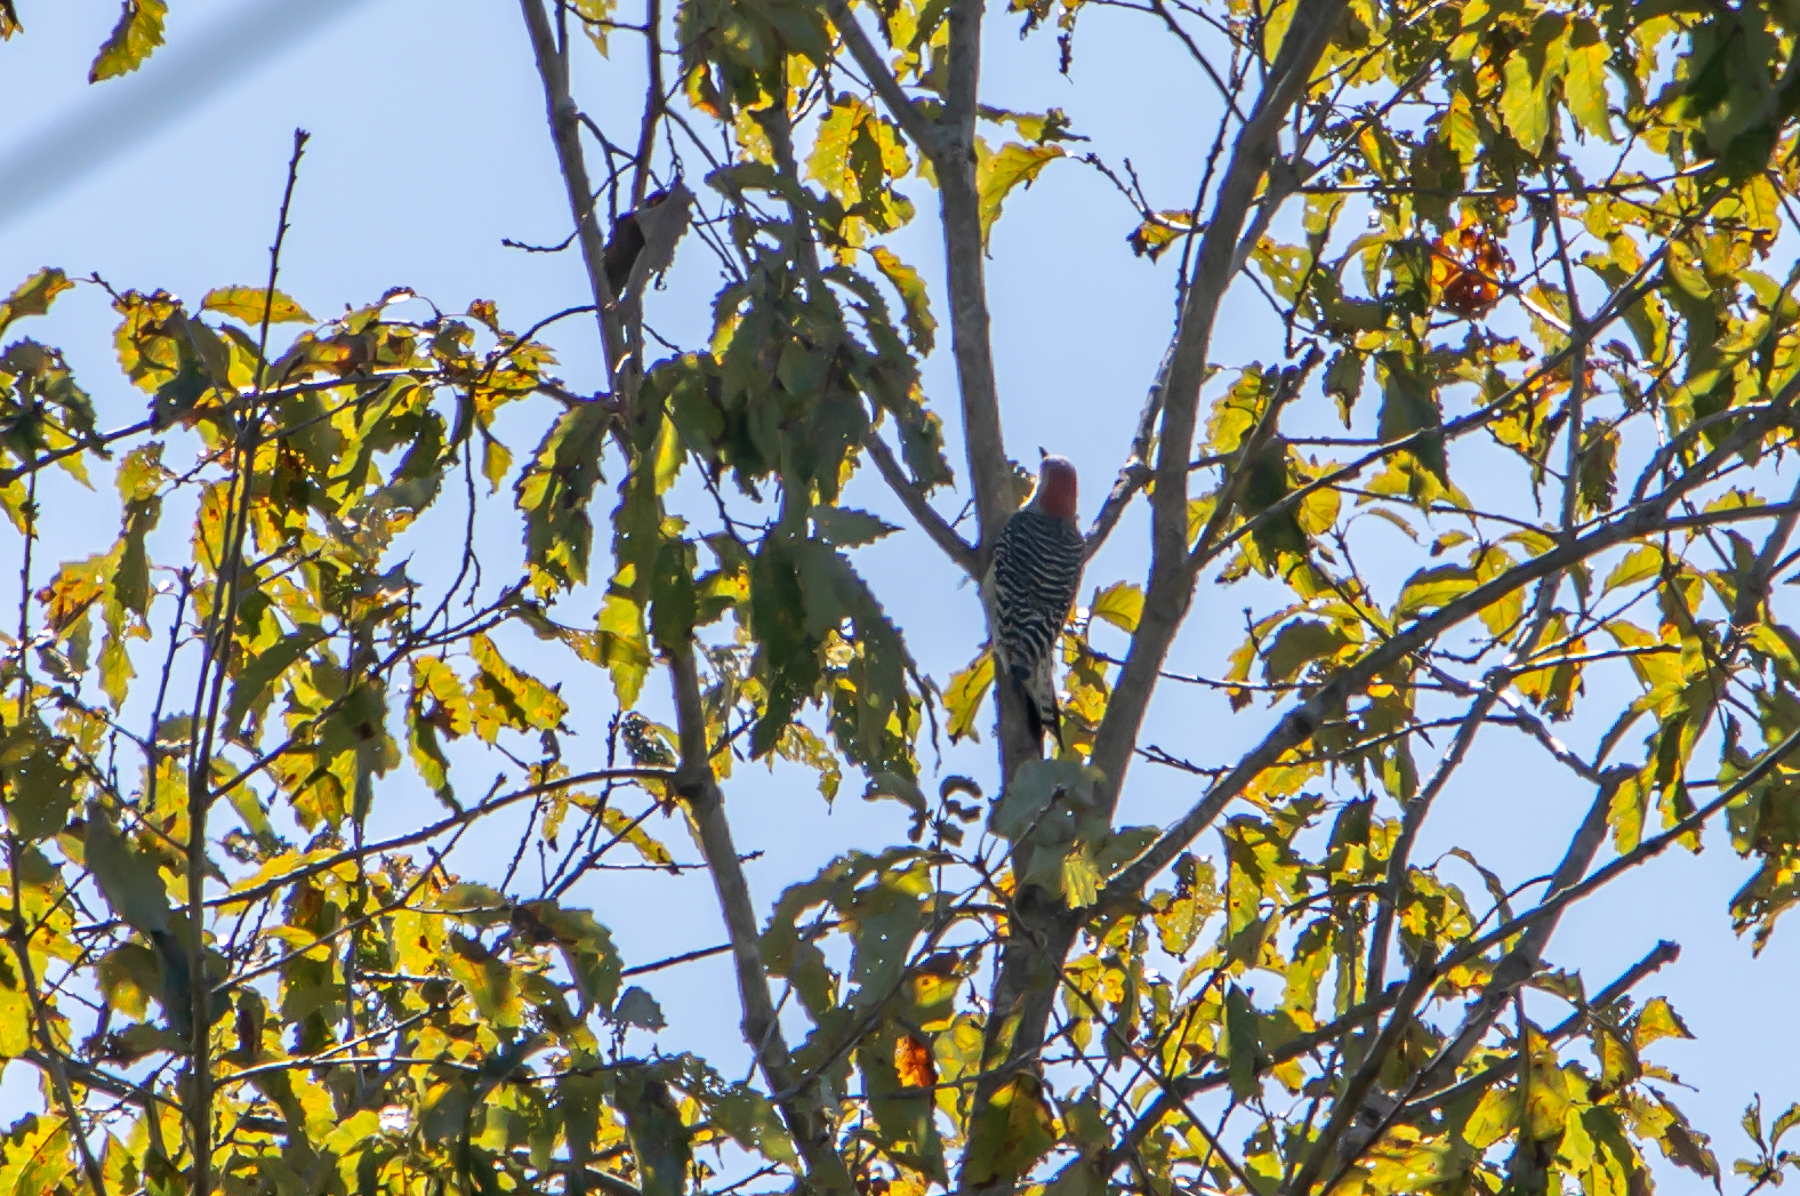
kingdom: Animalia
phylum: Chordata
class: Aves
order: Piciformes
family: Picidae
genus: Melanerpes
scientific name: Melanerpes carolinus
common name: Red-bellied woodpecker
